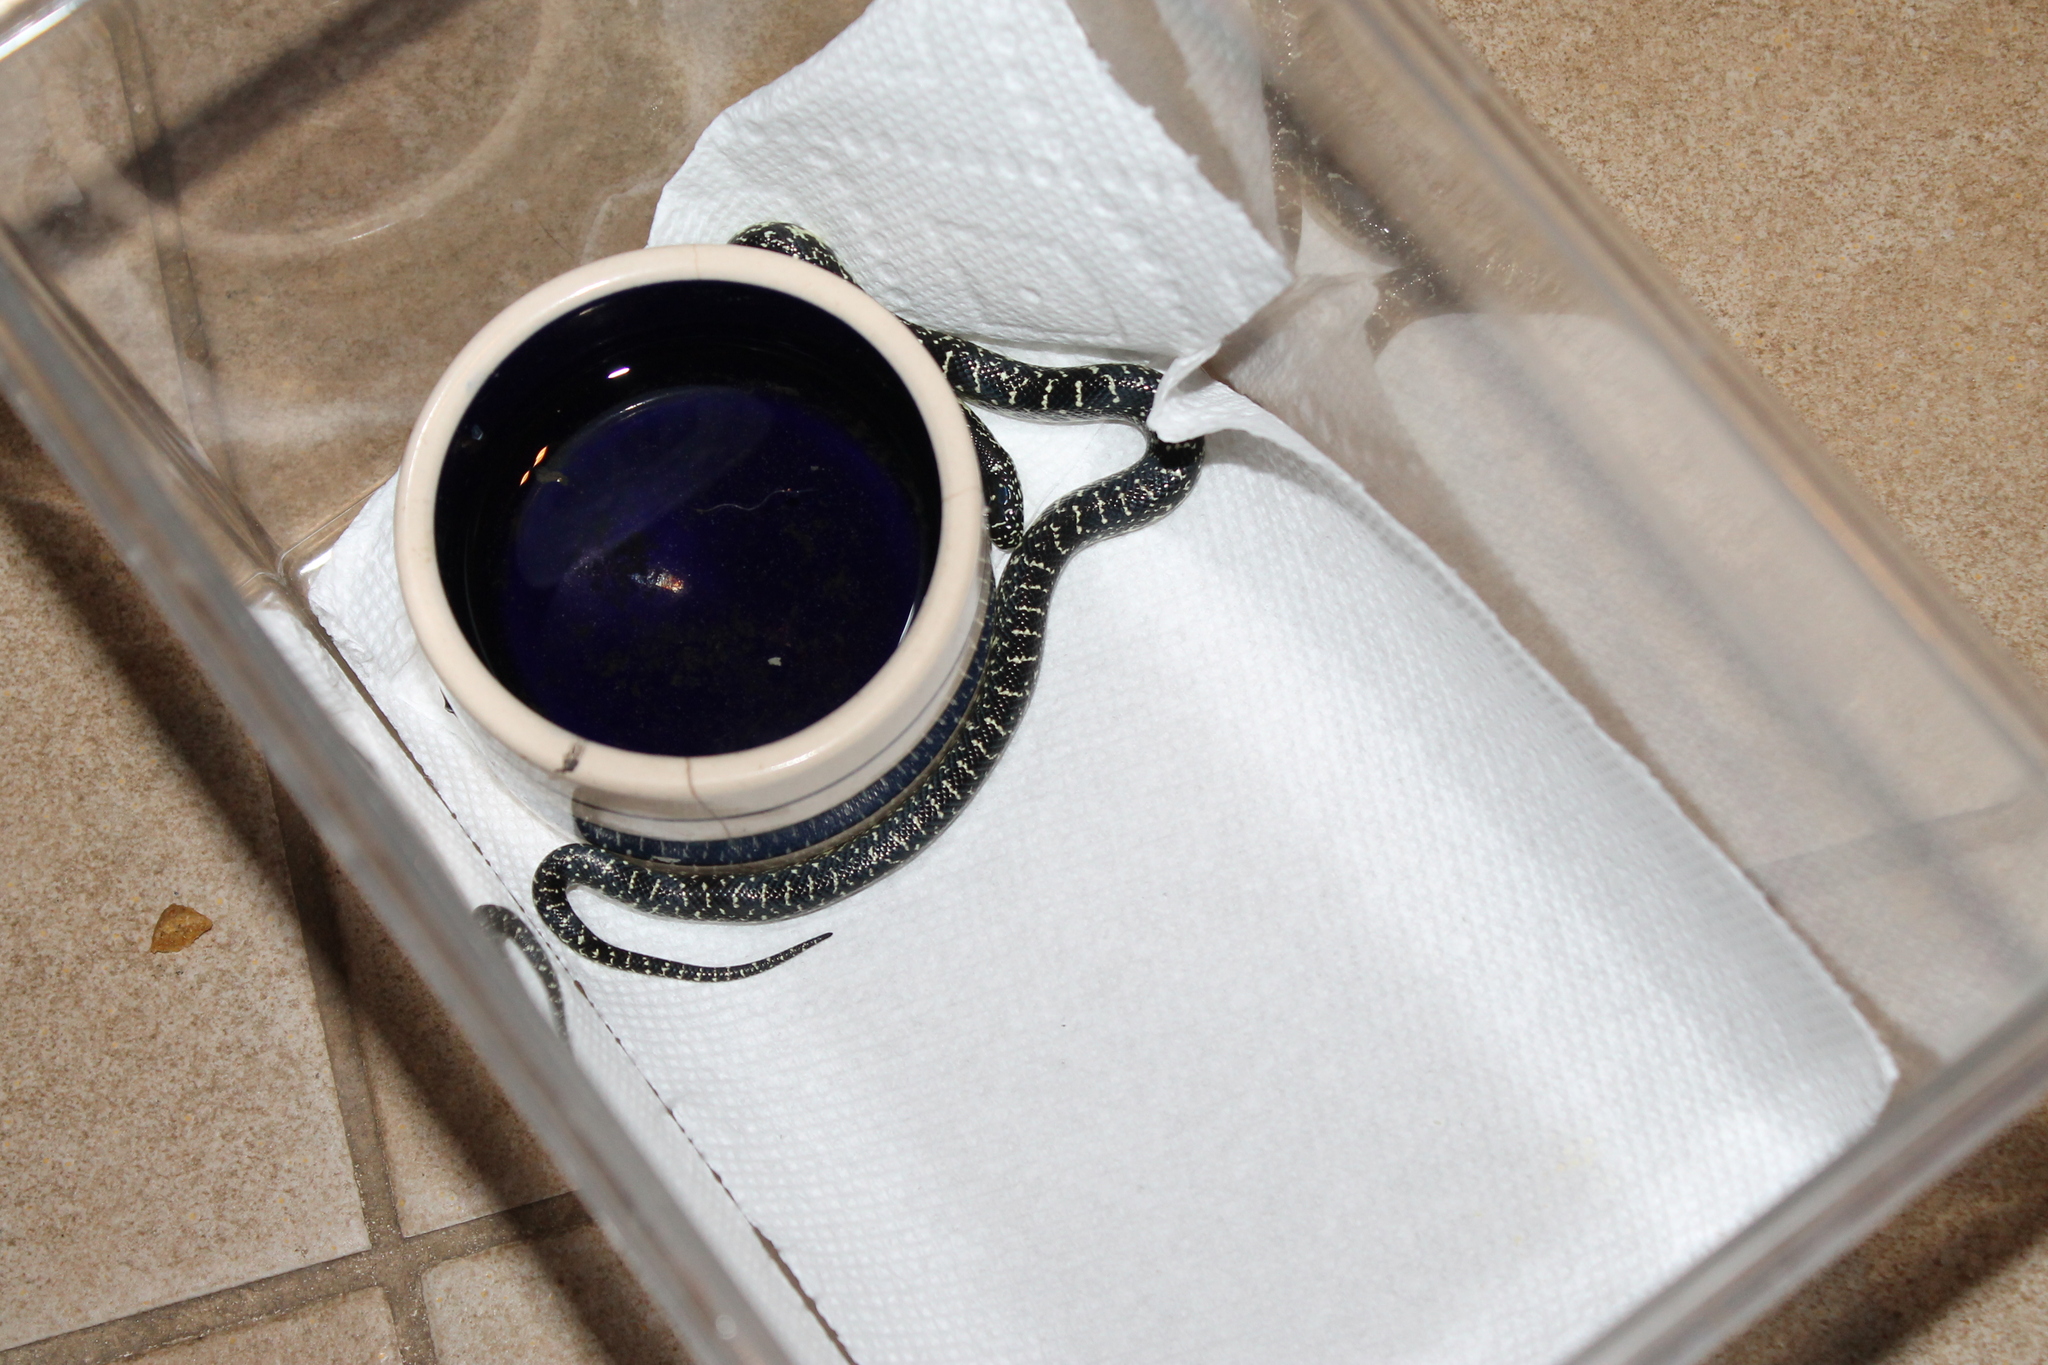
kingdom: Animalia
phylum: Chordata
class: Squamata
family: Colubridae
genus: Lampropeltis
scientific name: Lampropeltis nigra
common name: Black kingsnake
